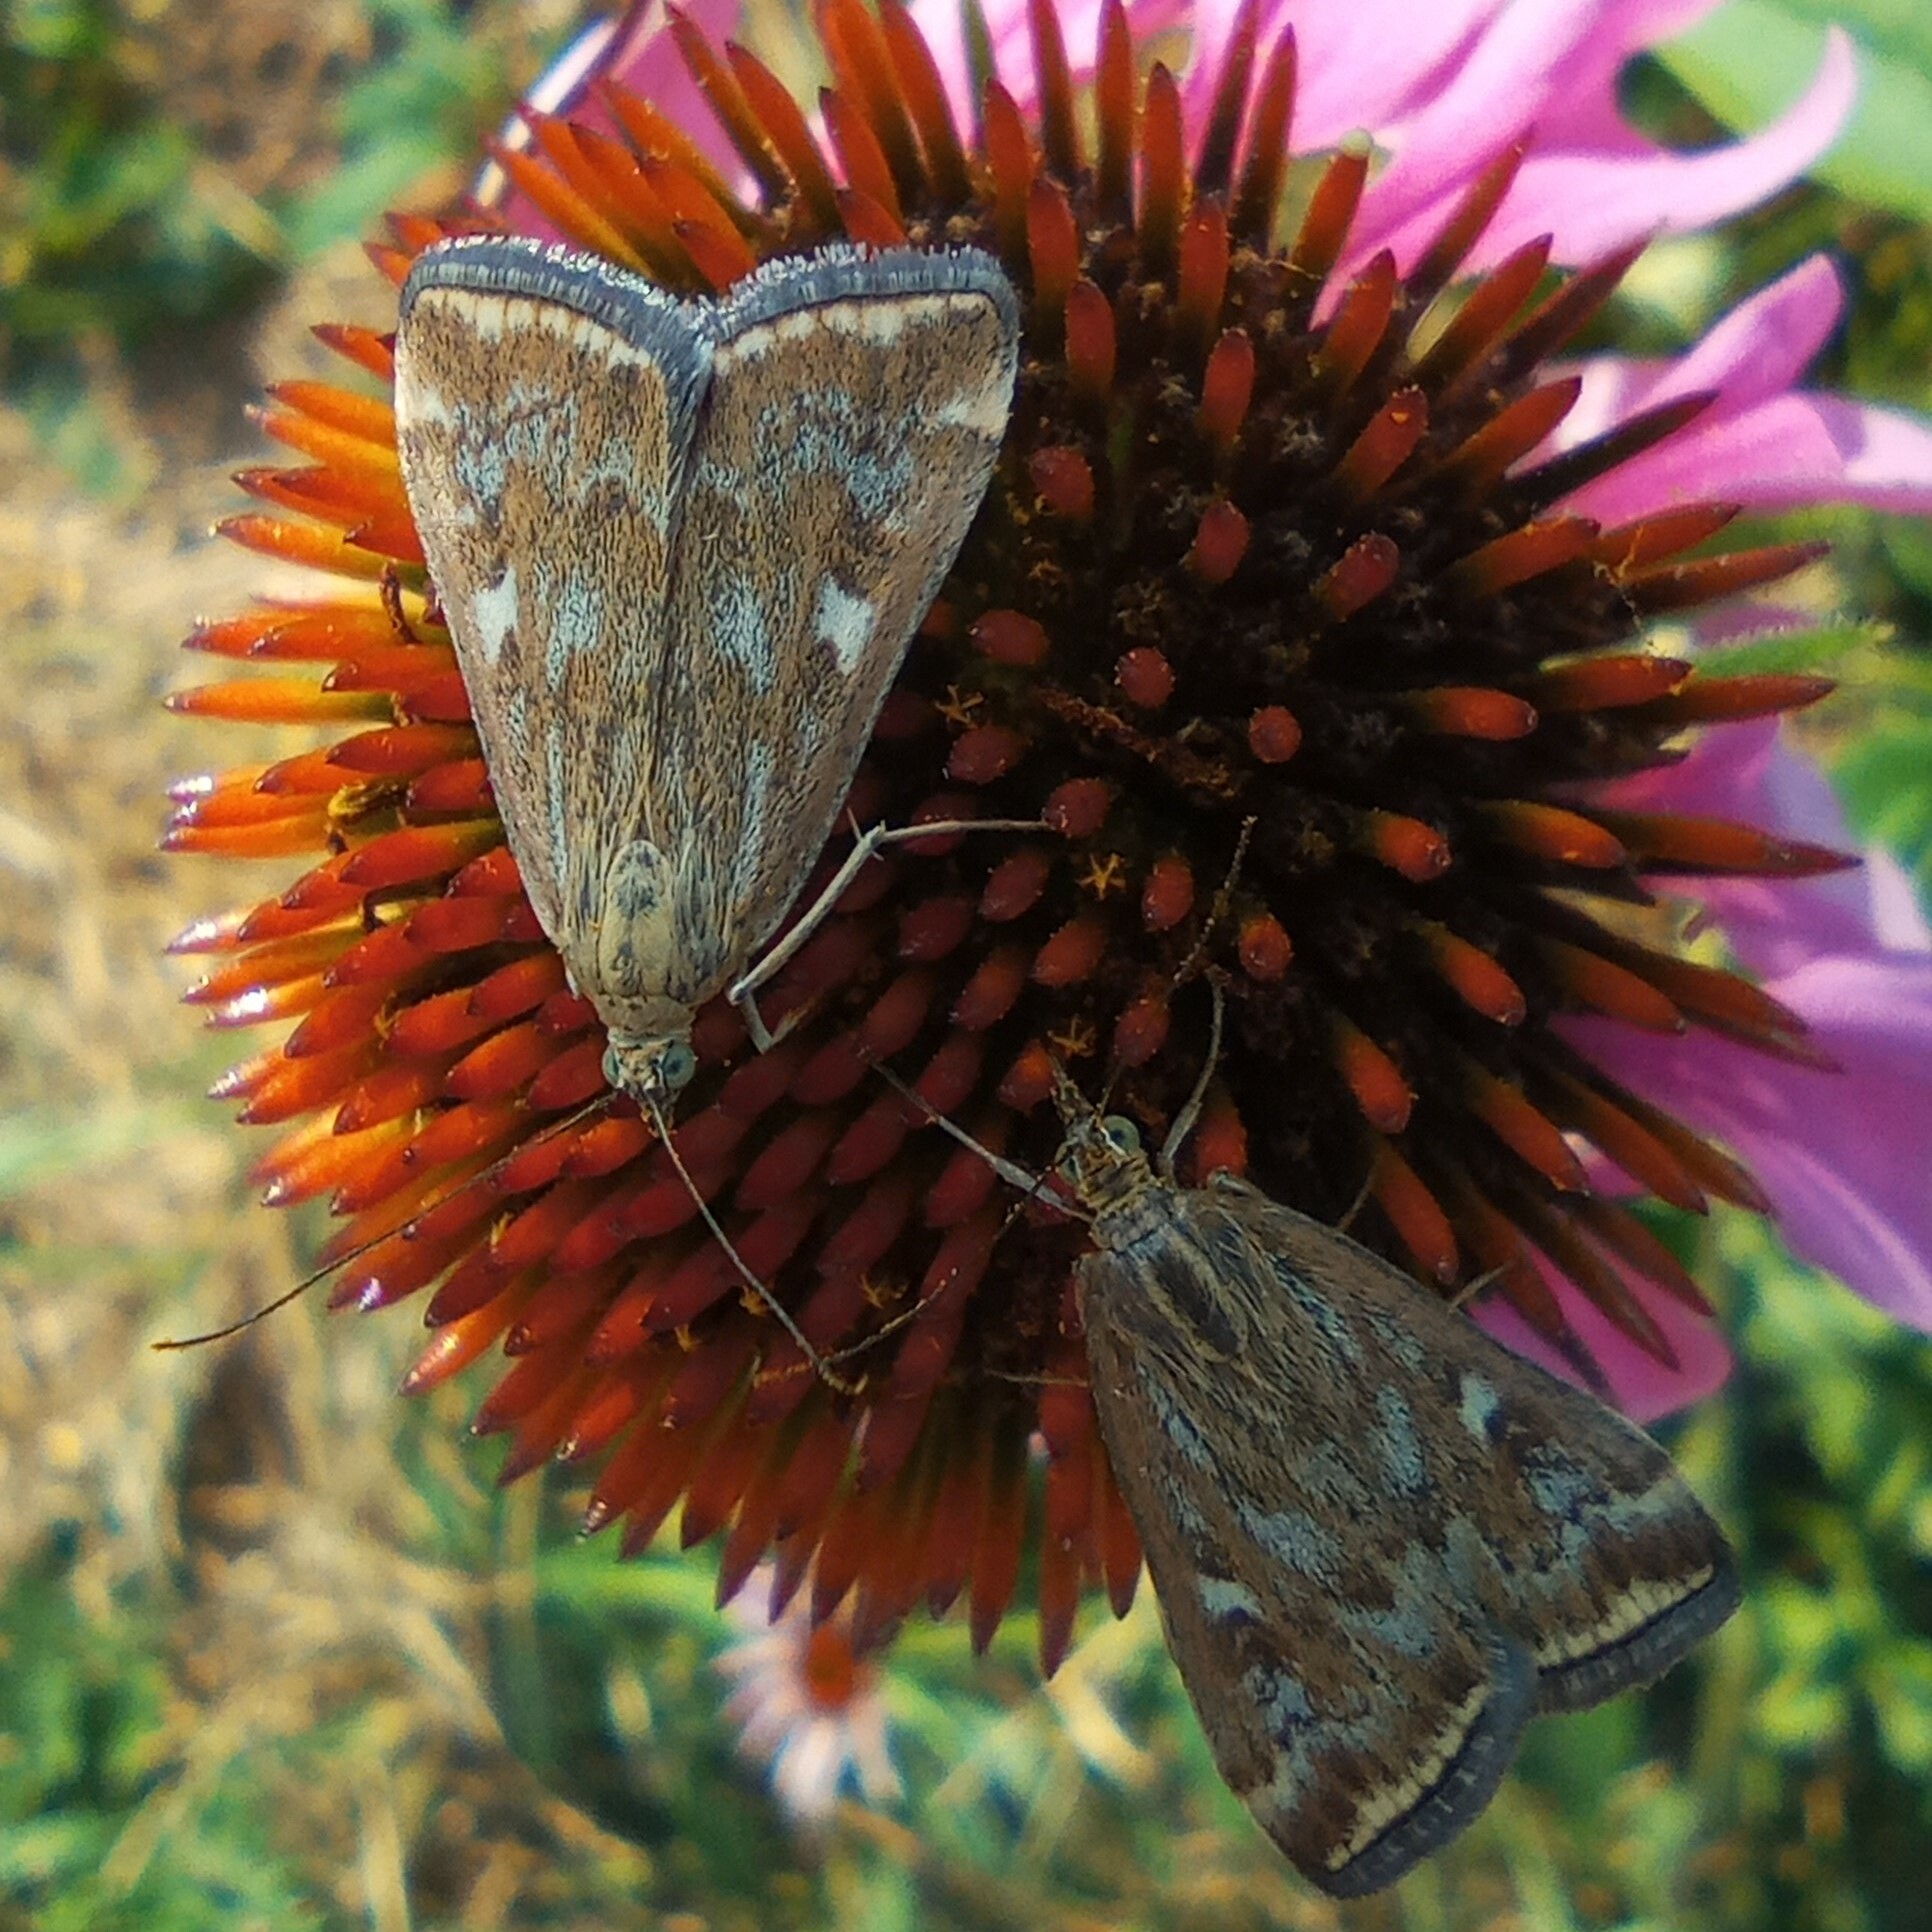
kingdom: Animalia
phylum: Arthropoda
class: Insecta
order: Lepidoptera
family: Crambidae
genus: Loxostege
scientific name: Loxostege sticticalis
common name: Crambid moth
